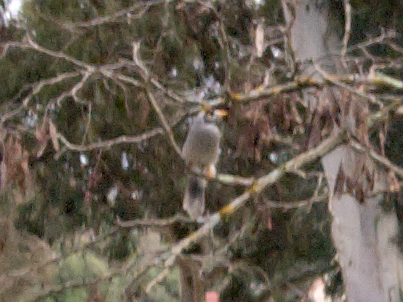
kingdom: Animalia
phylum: Chordata
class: Aves
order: Passeriformes
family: Meliphagidae
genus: Manorina
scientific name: Manorina melanocephala
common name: Noisy miner
